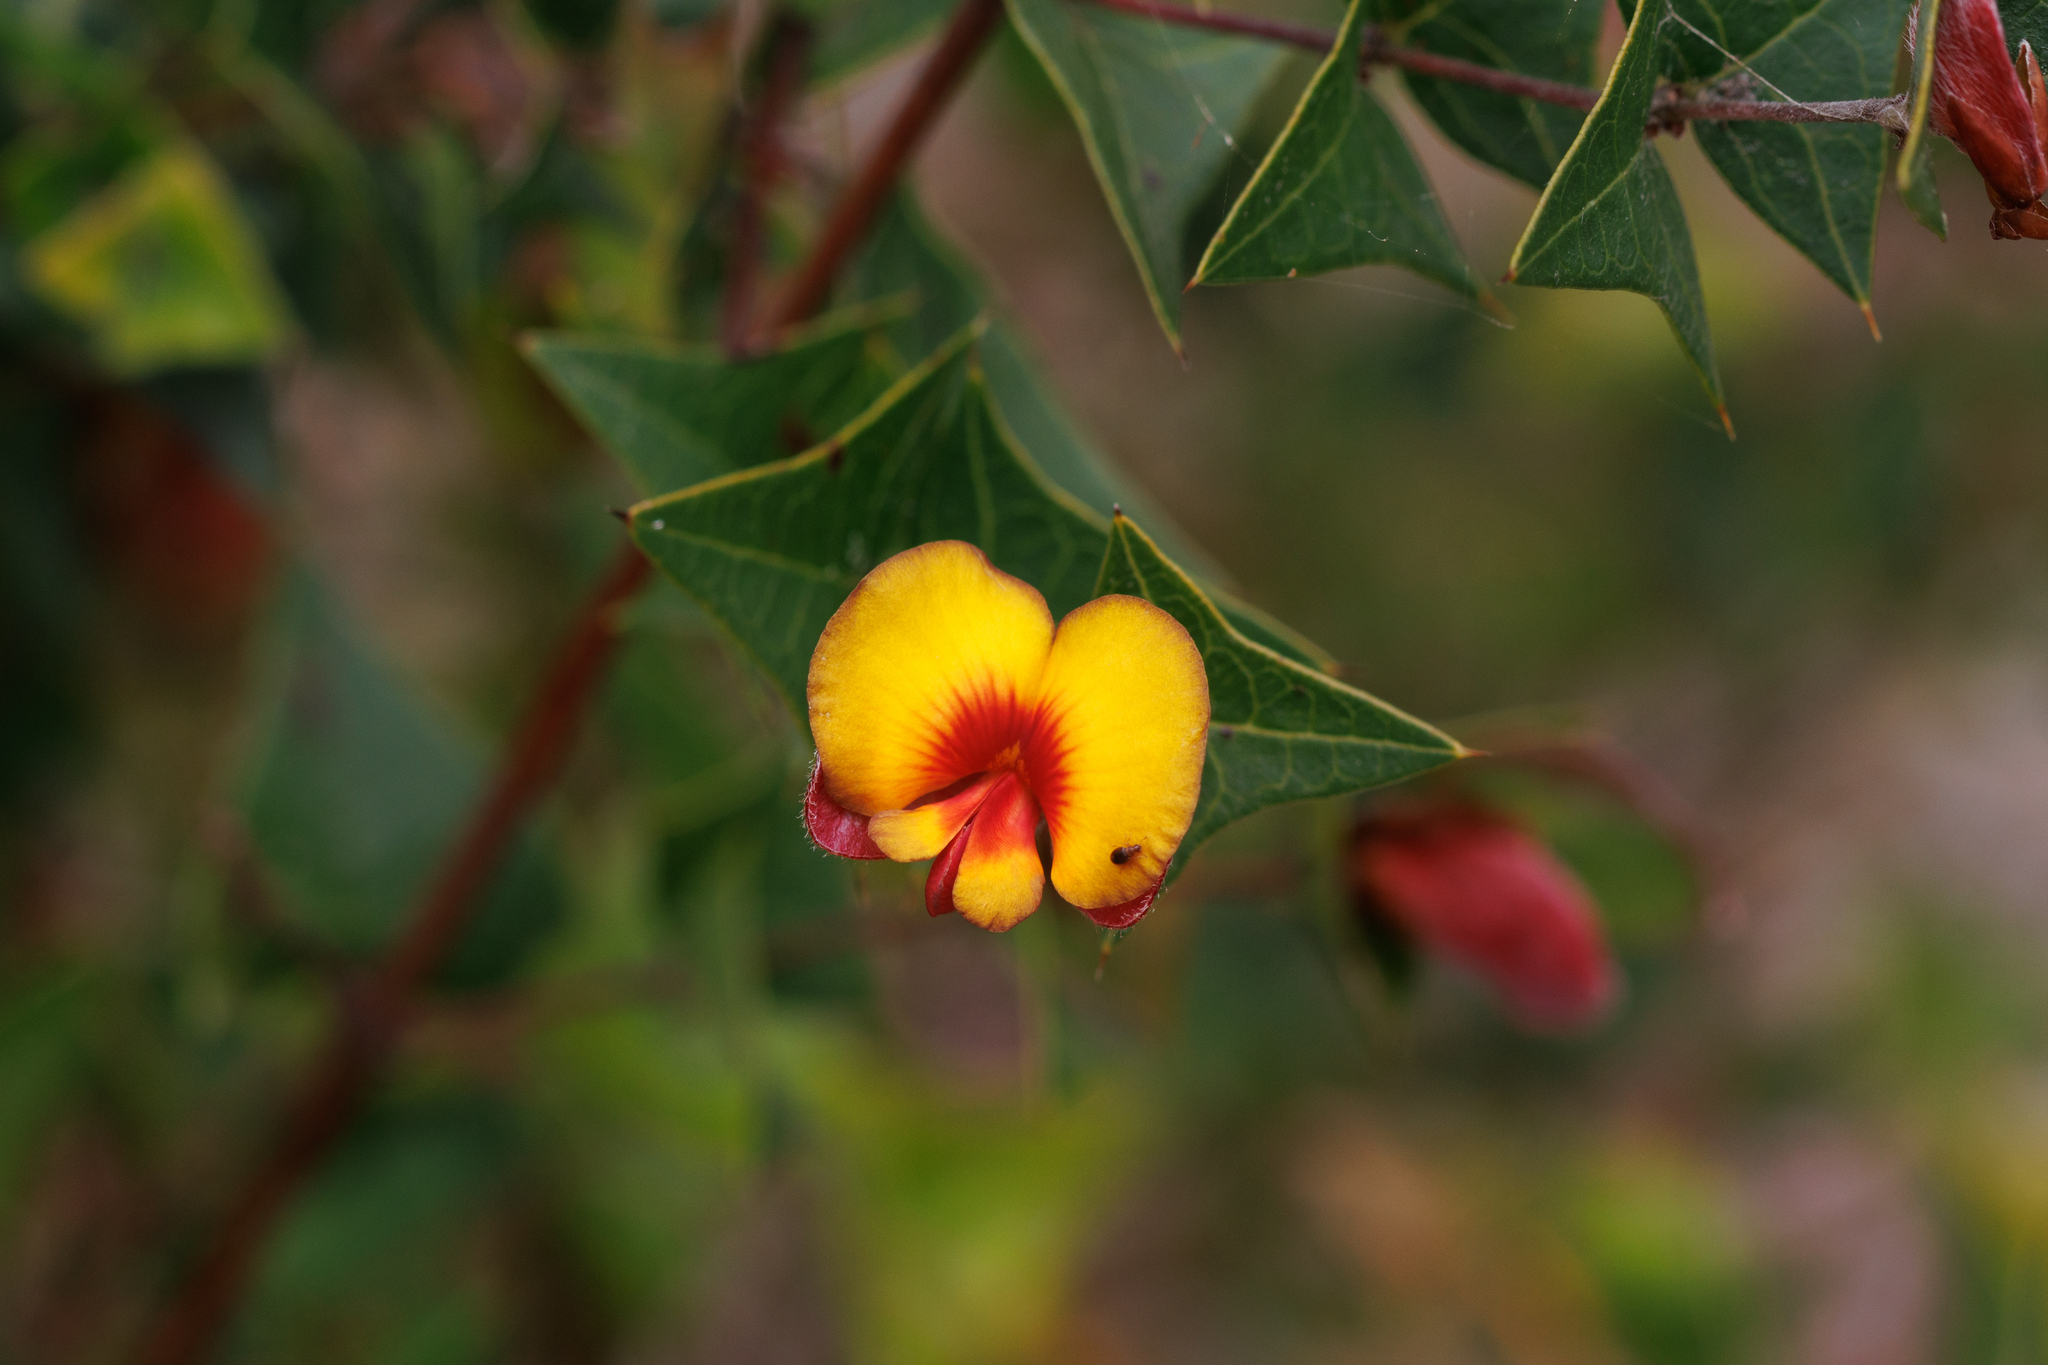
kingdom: Plantae
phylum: Tracheophyta
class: Magnoliopsida
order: Fabales
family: Fabaceae
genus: Platylobium
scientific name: Platylobium obtusangulum
